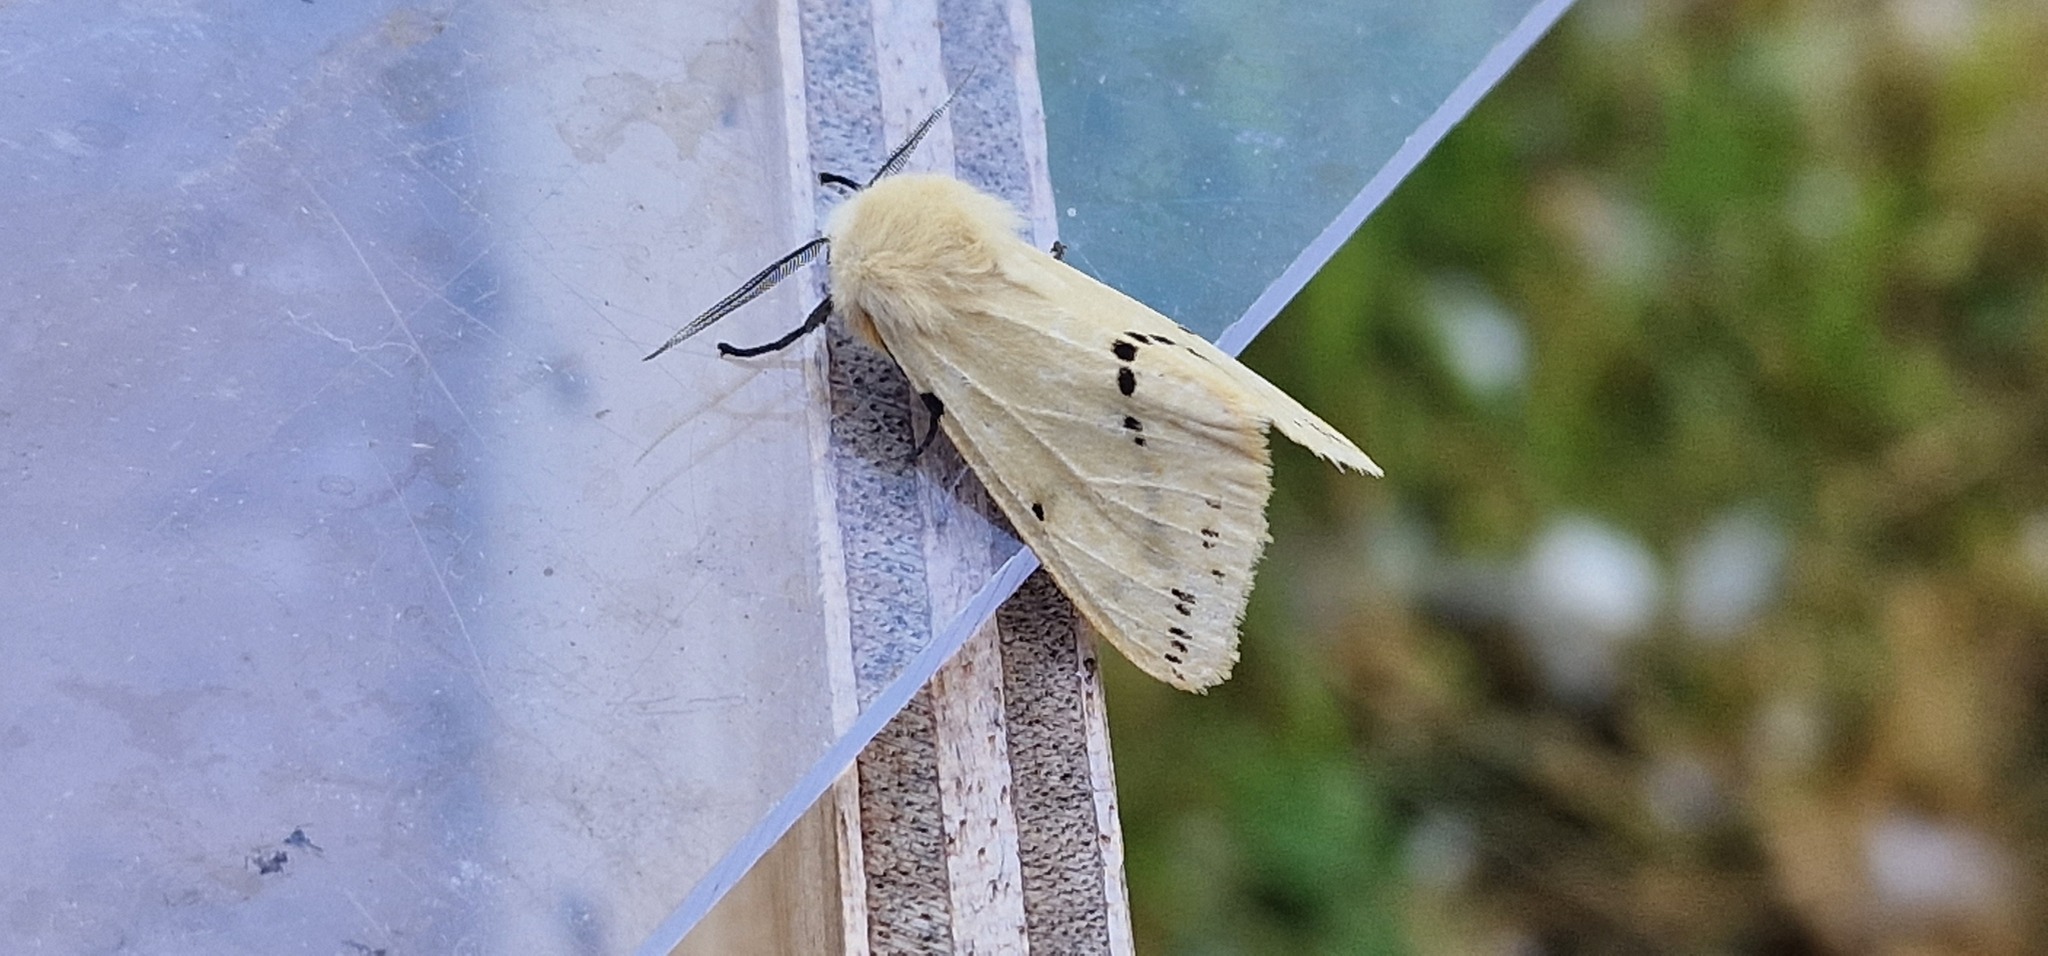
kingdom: Animalia
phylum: Arthropoda
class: Insecta
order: Lepidoptera
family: Erebidae
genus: Spilarctia
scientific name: Spilarctia lutea
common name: Buff ermine
